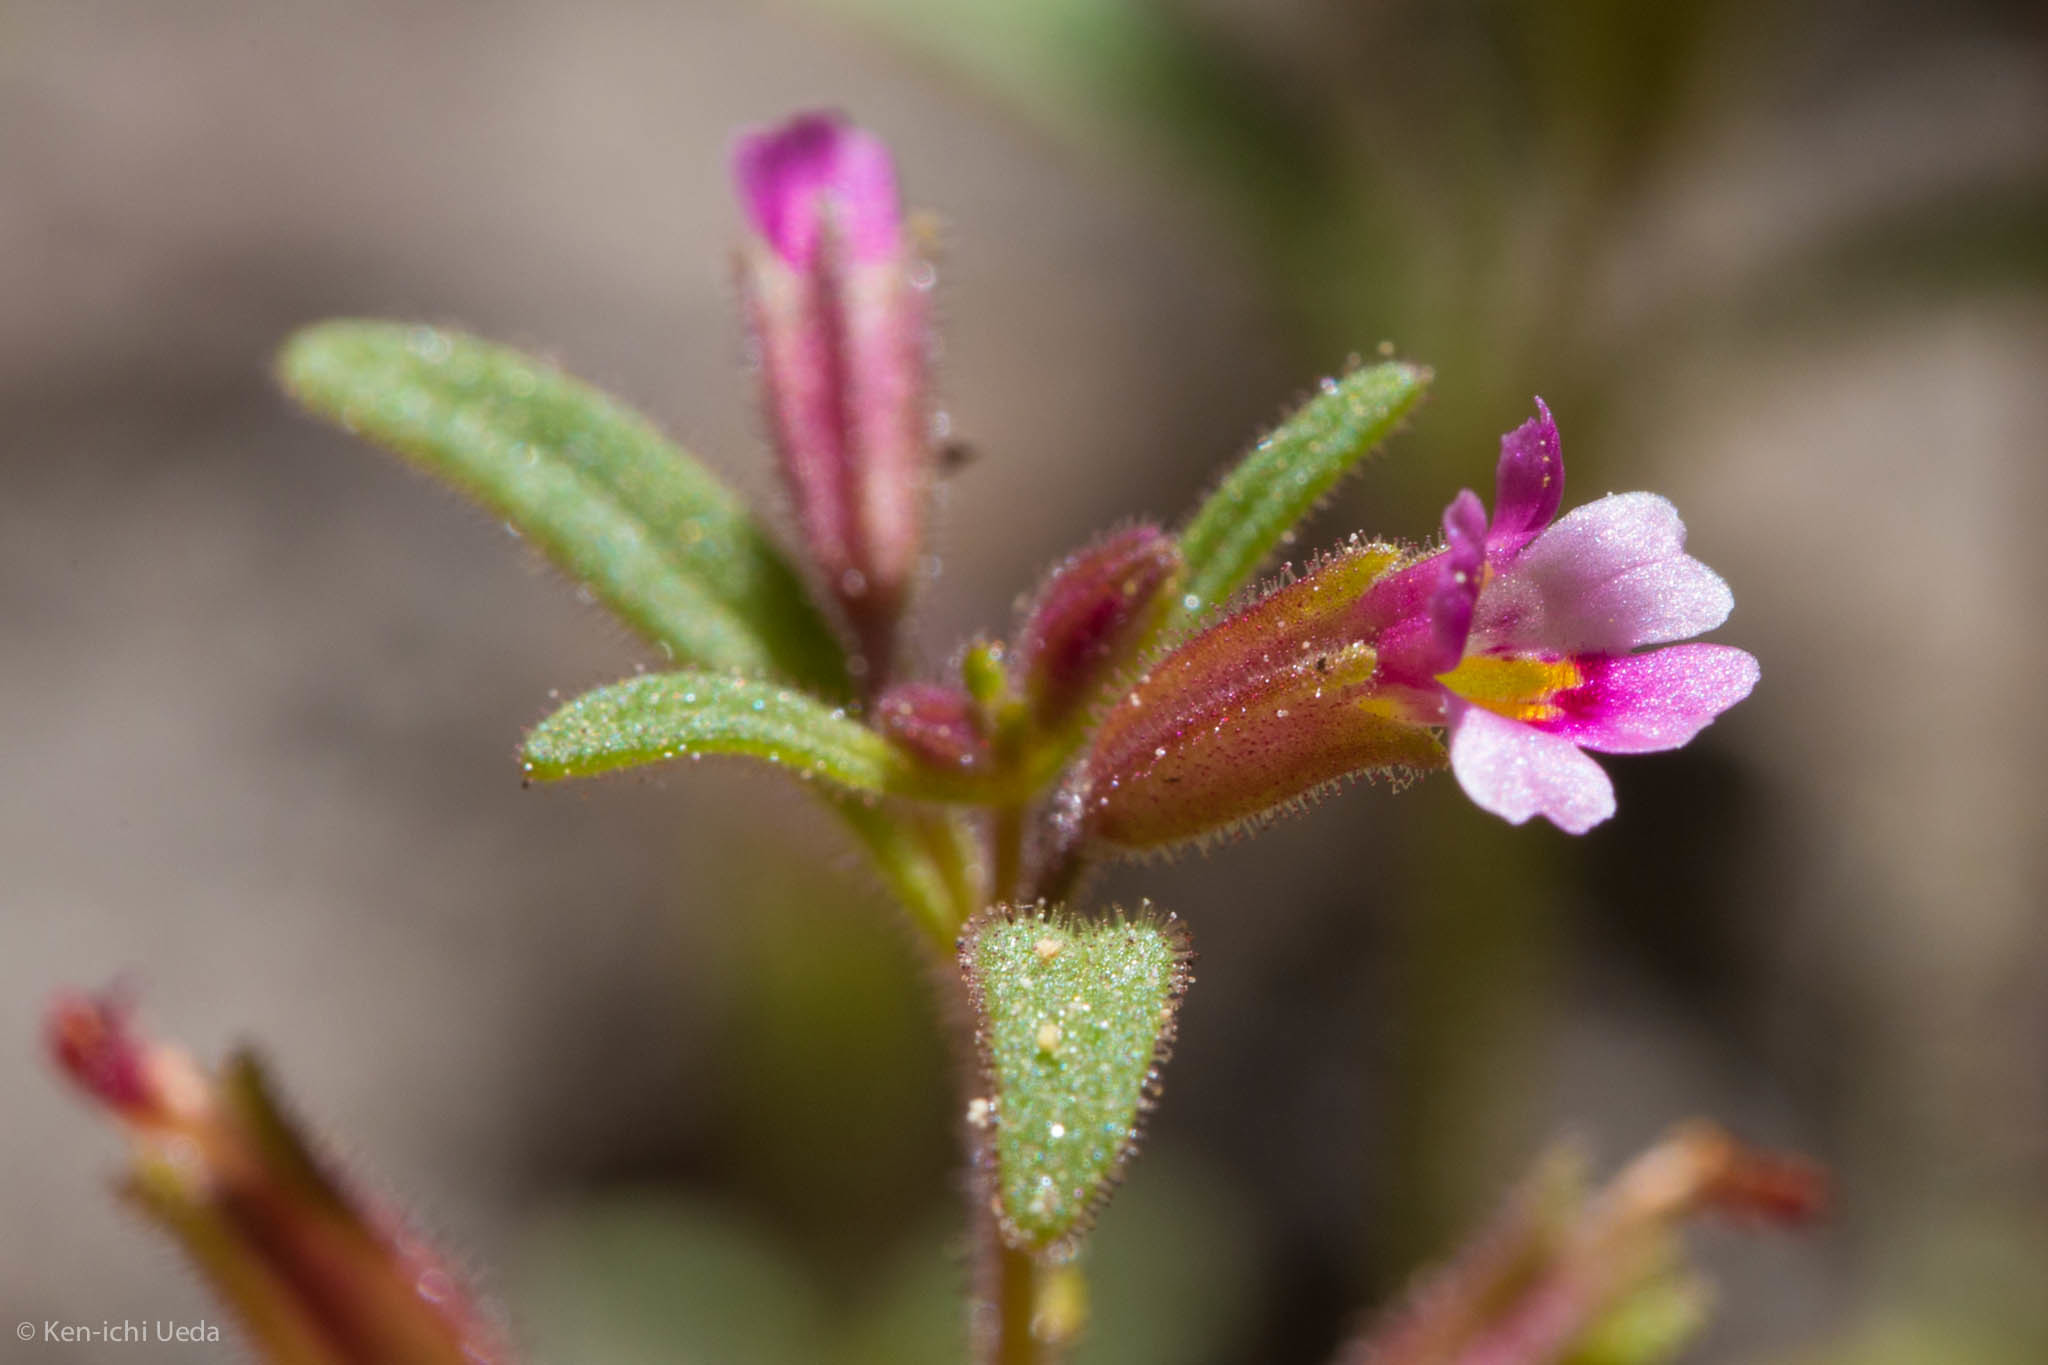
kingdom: Plantae
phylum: Tracheophyta
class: Magnoliopsida
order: Lamiales
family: Phrymaceae
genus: Erythranthe
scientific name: Erythranthe breweri
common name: Brewer's monkeyflower
